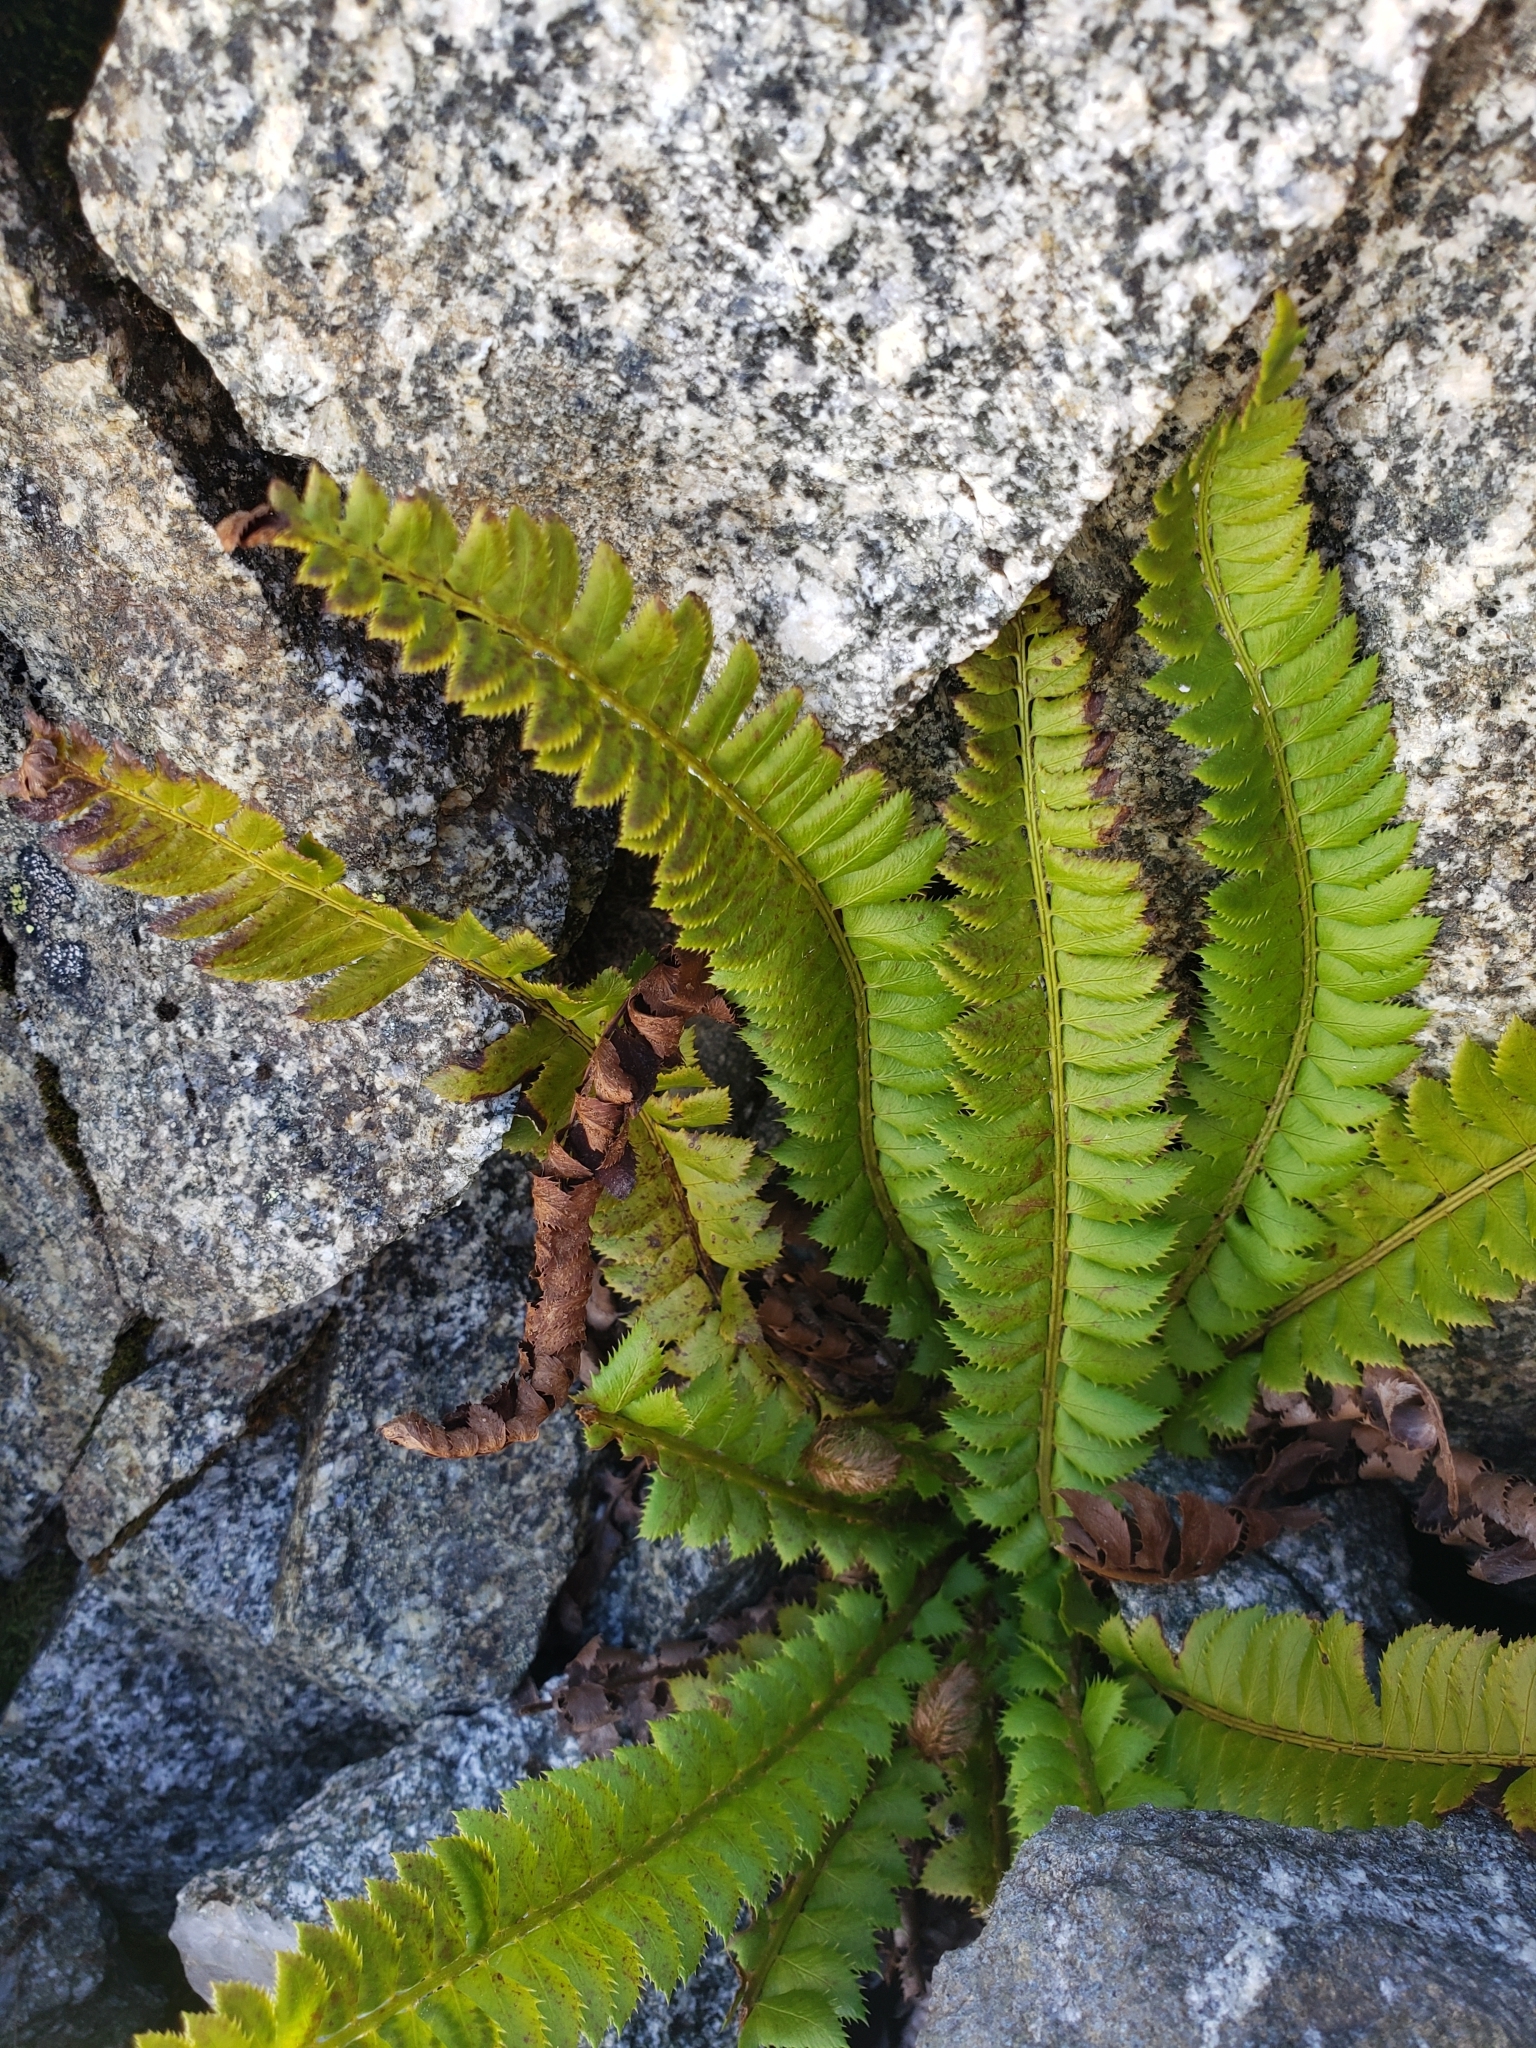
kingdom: Plantae
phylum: Tracheophyta
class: Polypodiopsida
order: Polypodiales
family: Dryopteridaceae
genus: Polystichum
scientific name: Polystichum lonchitis
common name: Holly fern
